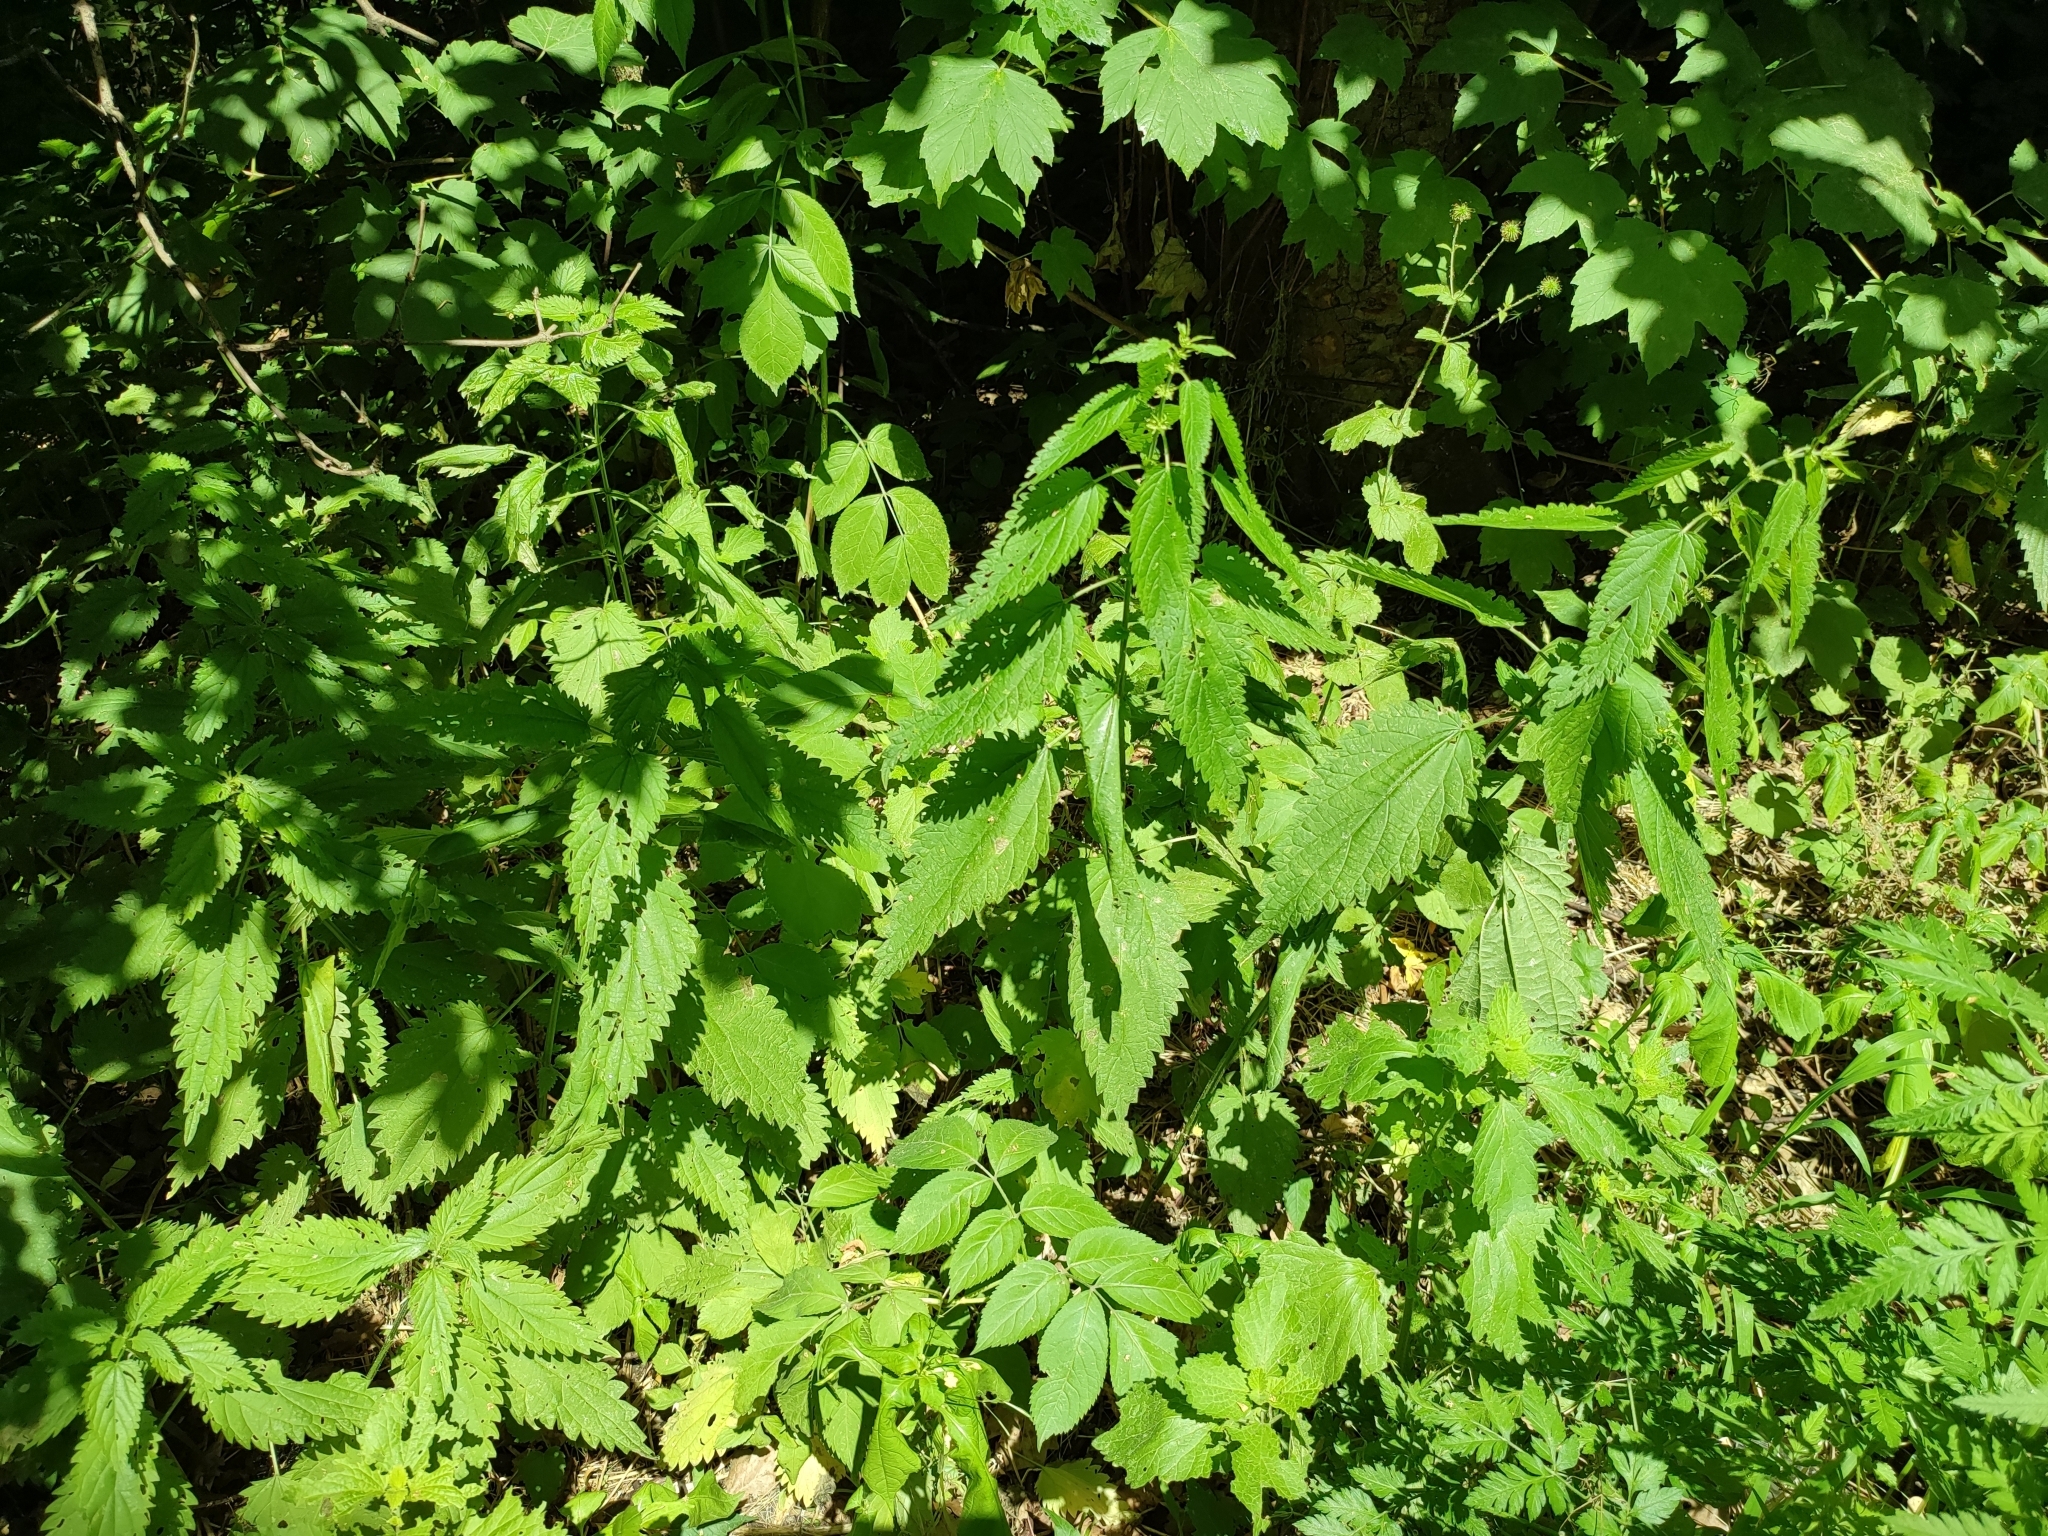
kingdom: Plantae
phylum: Tracheophyta
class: Magnoliopsida
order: Rosales
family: Urticaceae
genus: Urtica
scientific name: Urtica dioica
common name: Common nettle
